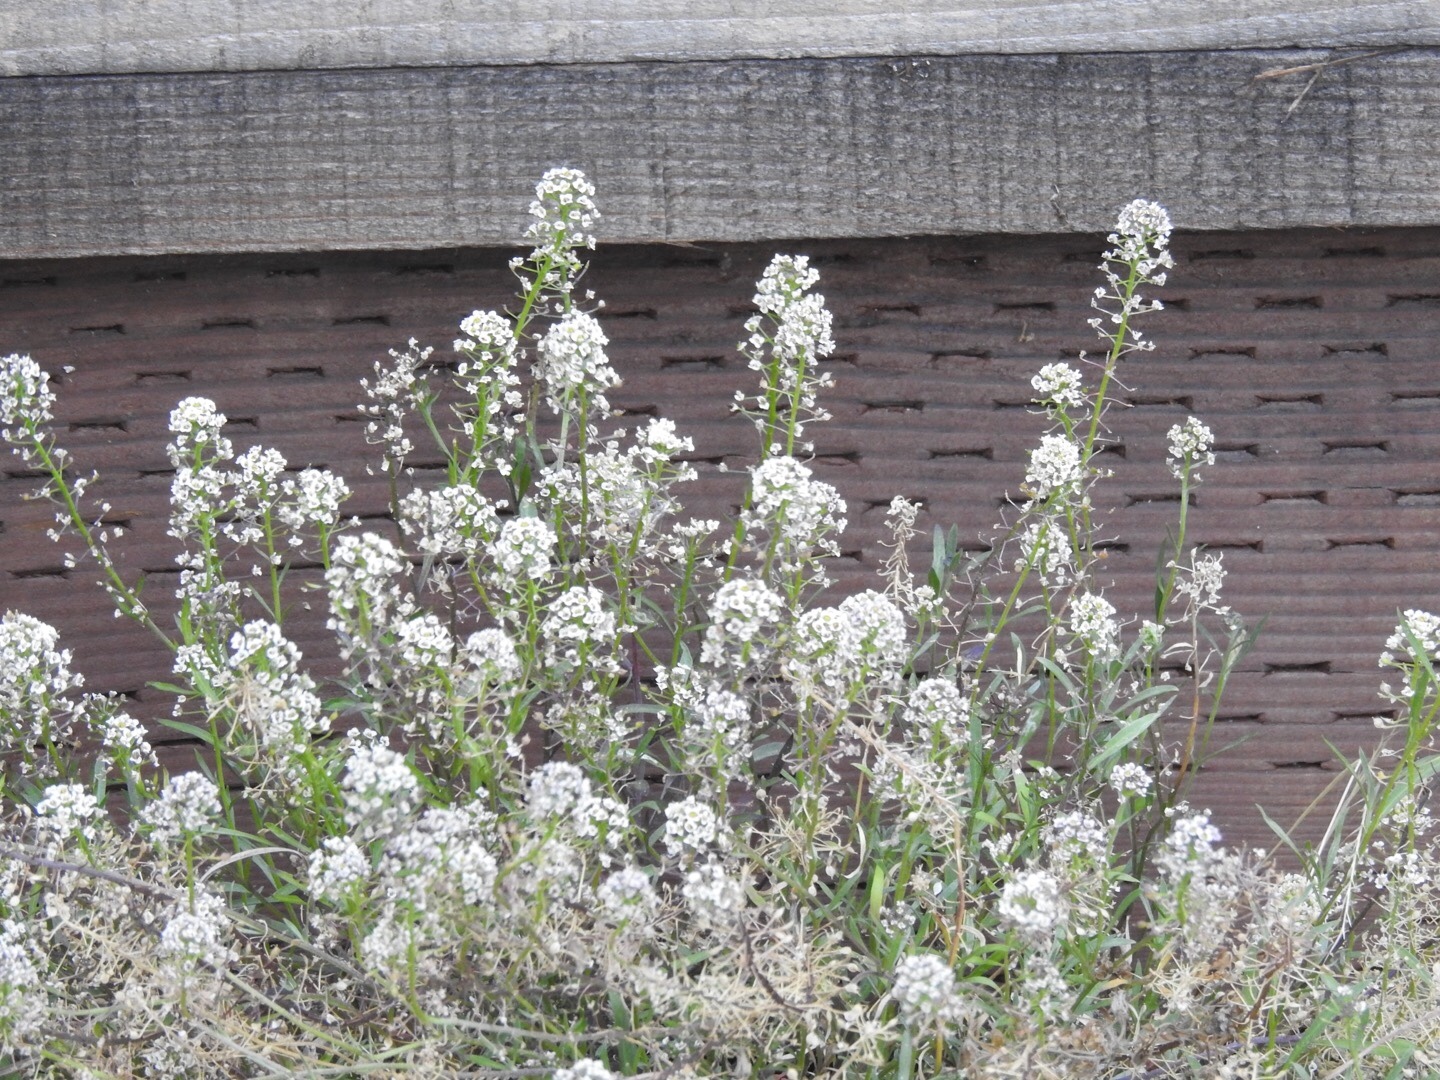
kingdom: Plantae
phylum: Tracheophyta
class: Magnoliopsida
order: Brassicales
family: Brassicaceae
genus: Lobularia
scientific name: Lobularia maritima
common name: Sweet alison
